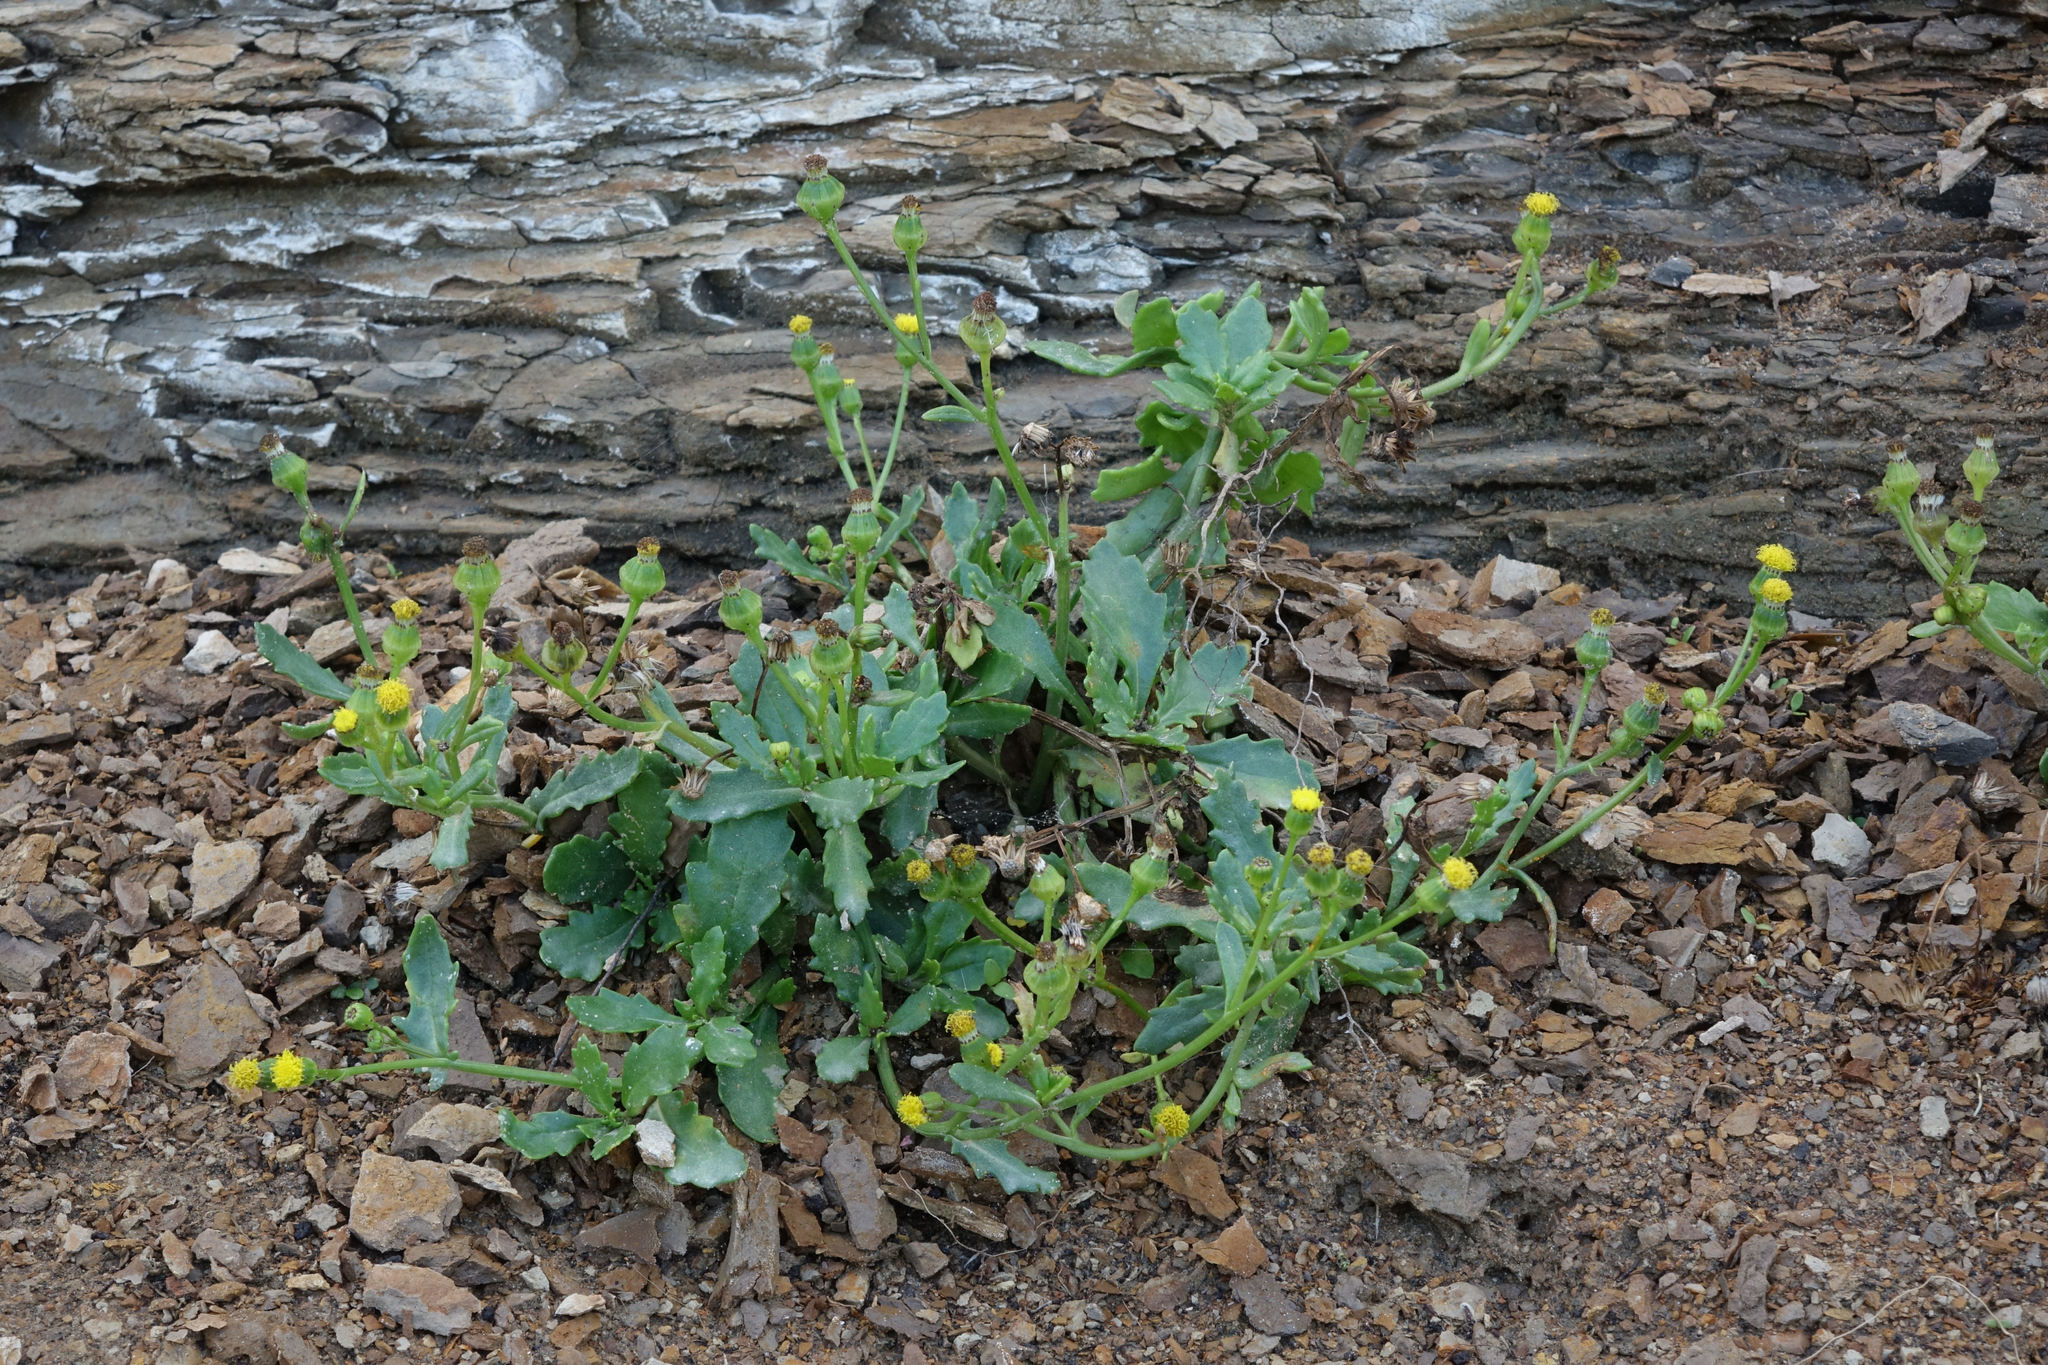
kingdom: Plantae
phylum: Tracheophyta
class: Magnoliopsida
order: Asterales
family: Asteraceae
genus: Senecio
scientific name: Senecio matatini
